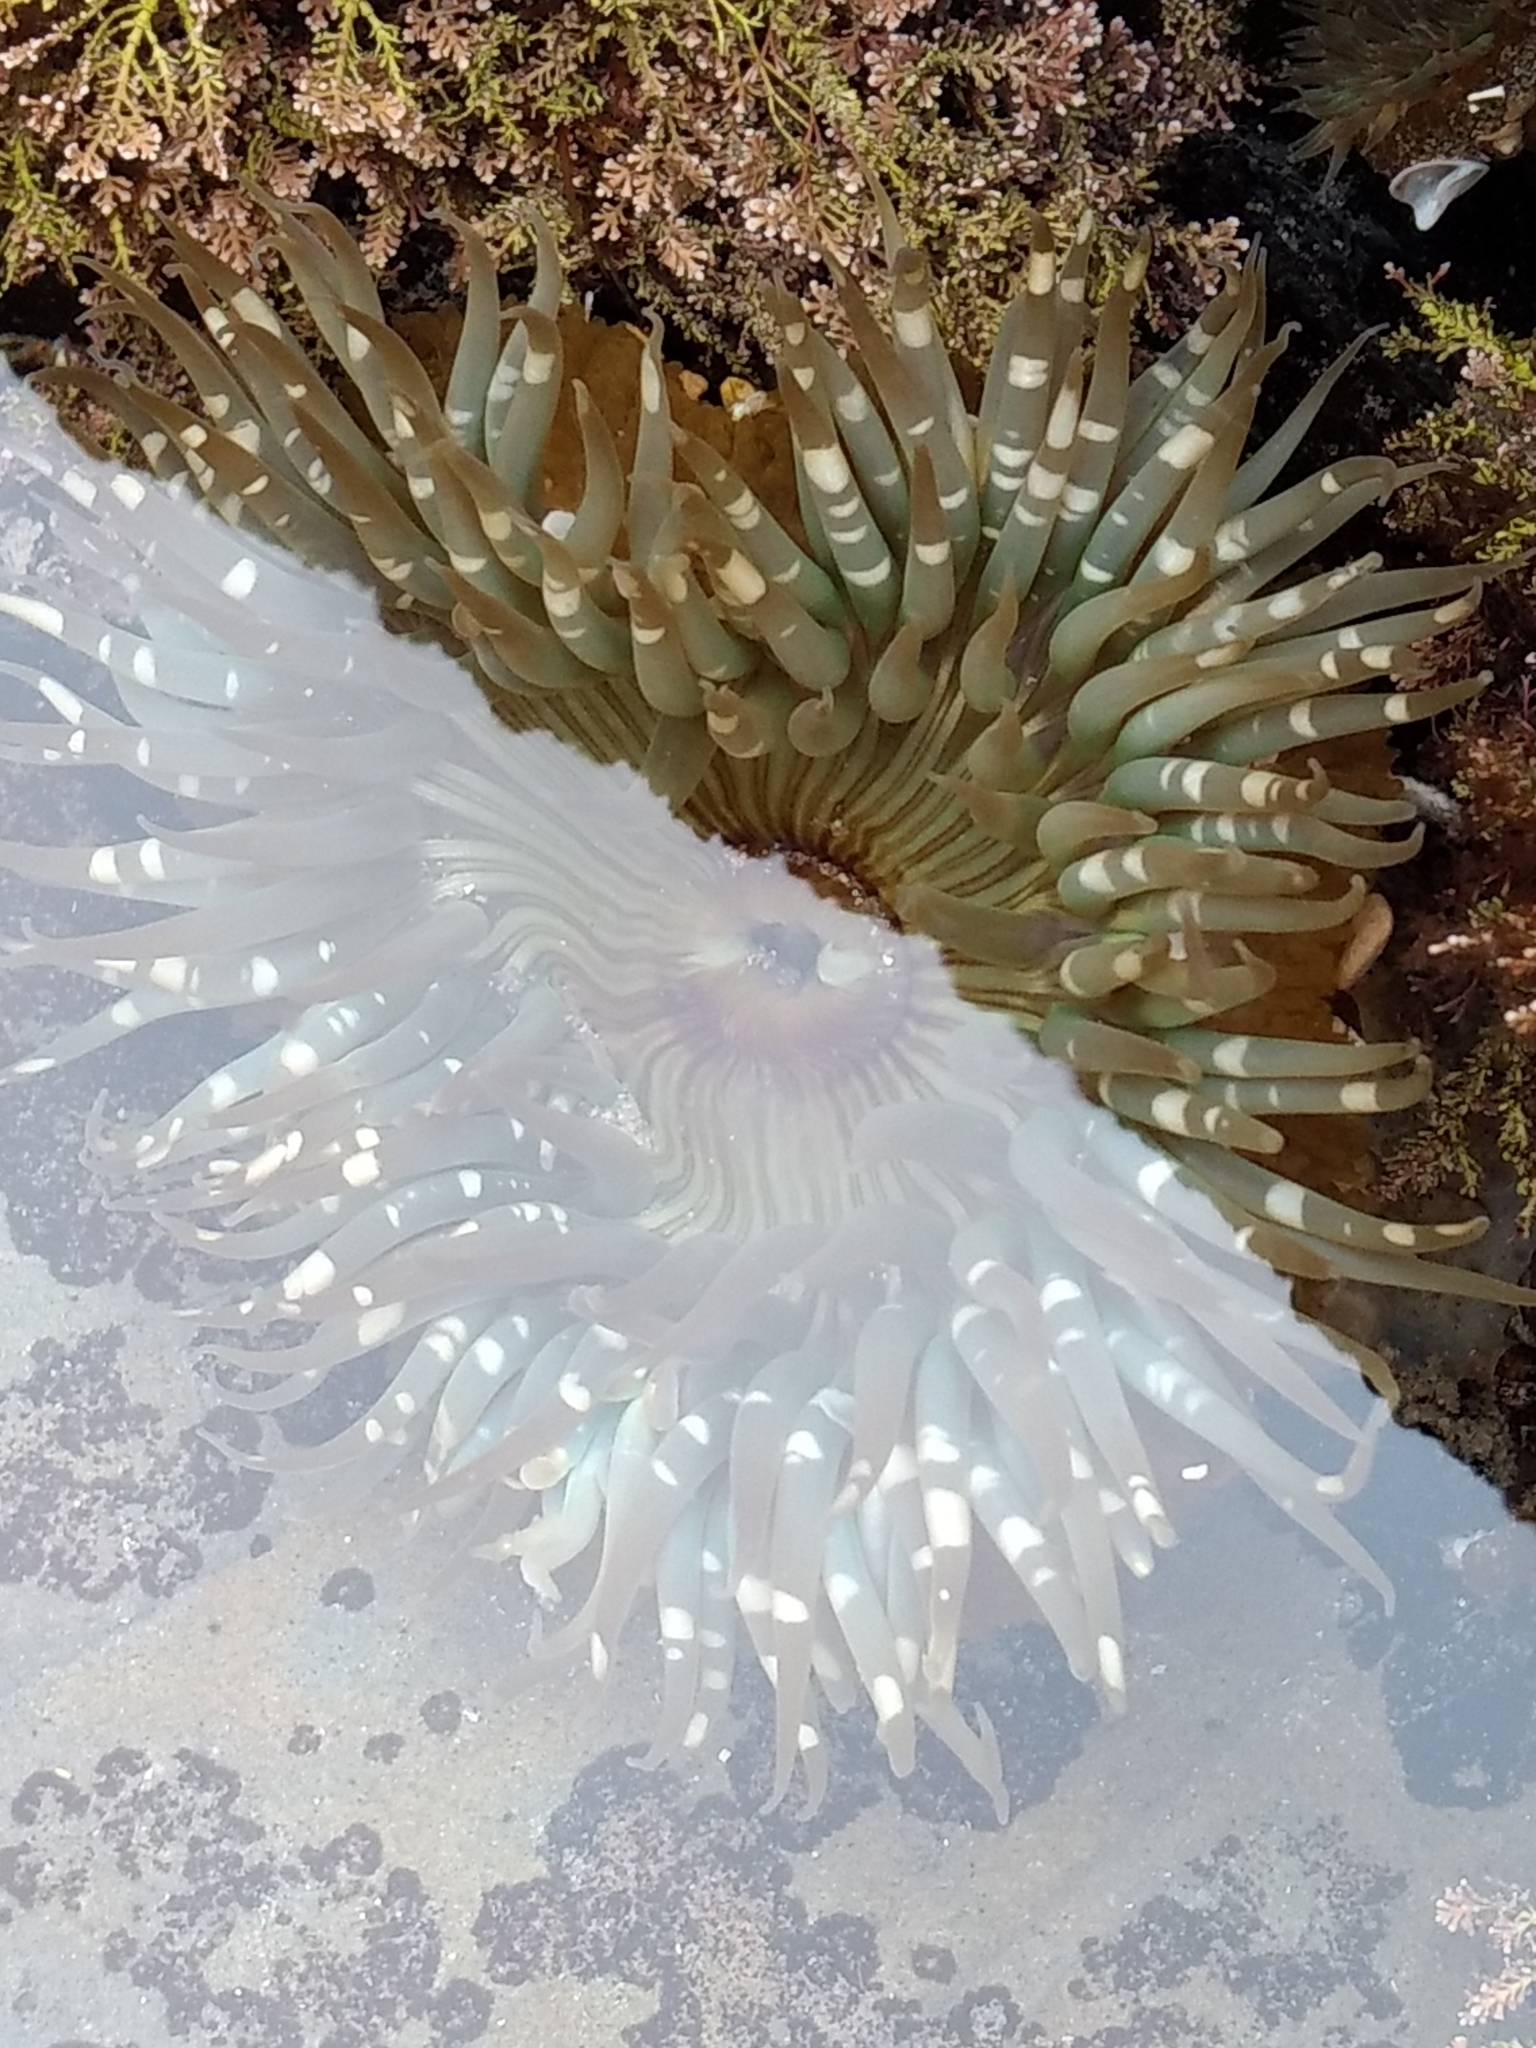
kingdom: Animalia
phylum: Cnidaria
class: Anthozoa
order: Actiniaria
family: Actiniidae
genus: Anthopleura
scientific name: Anthopleura sola
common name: Sun anemone
